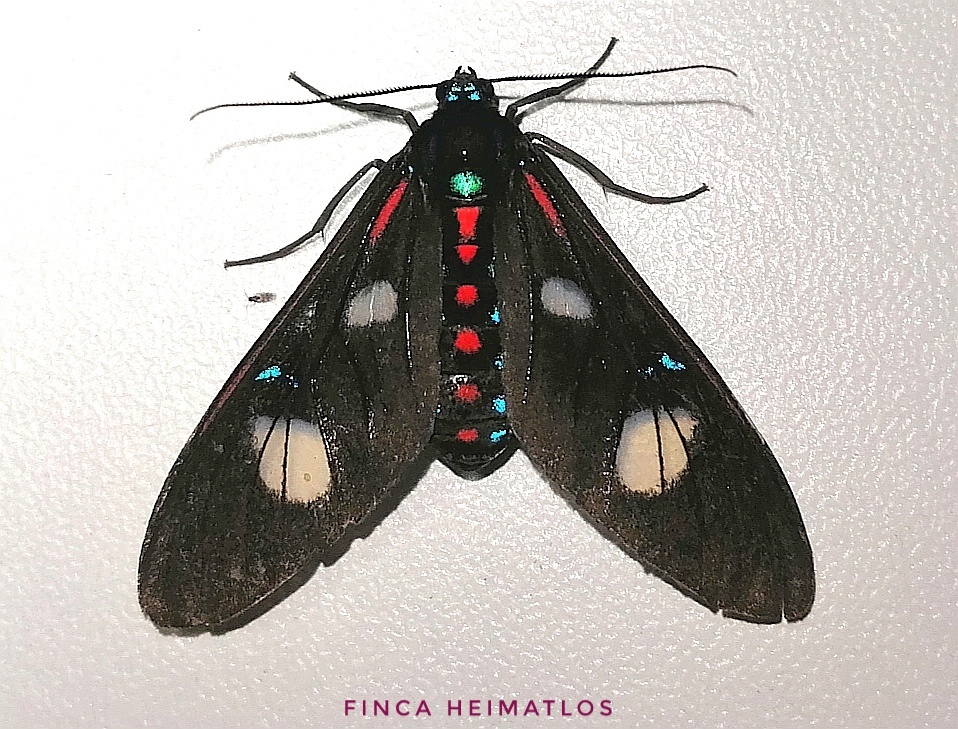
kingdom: Animalia
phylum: Arthropoda
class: Insecta
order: Lepidoptera
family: Erebidae
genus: Euclera
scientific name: Euclera meones
